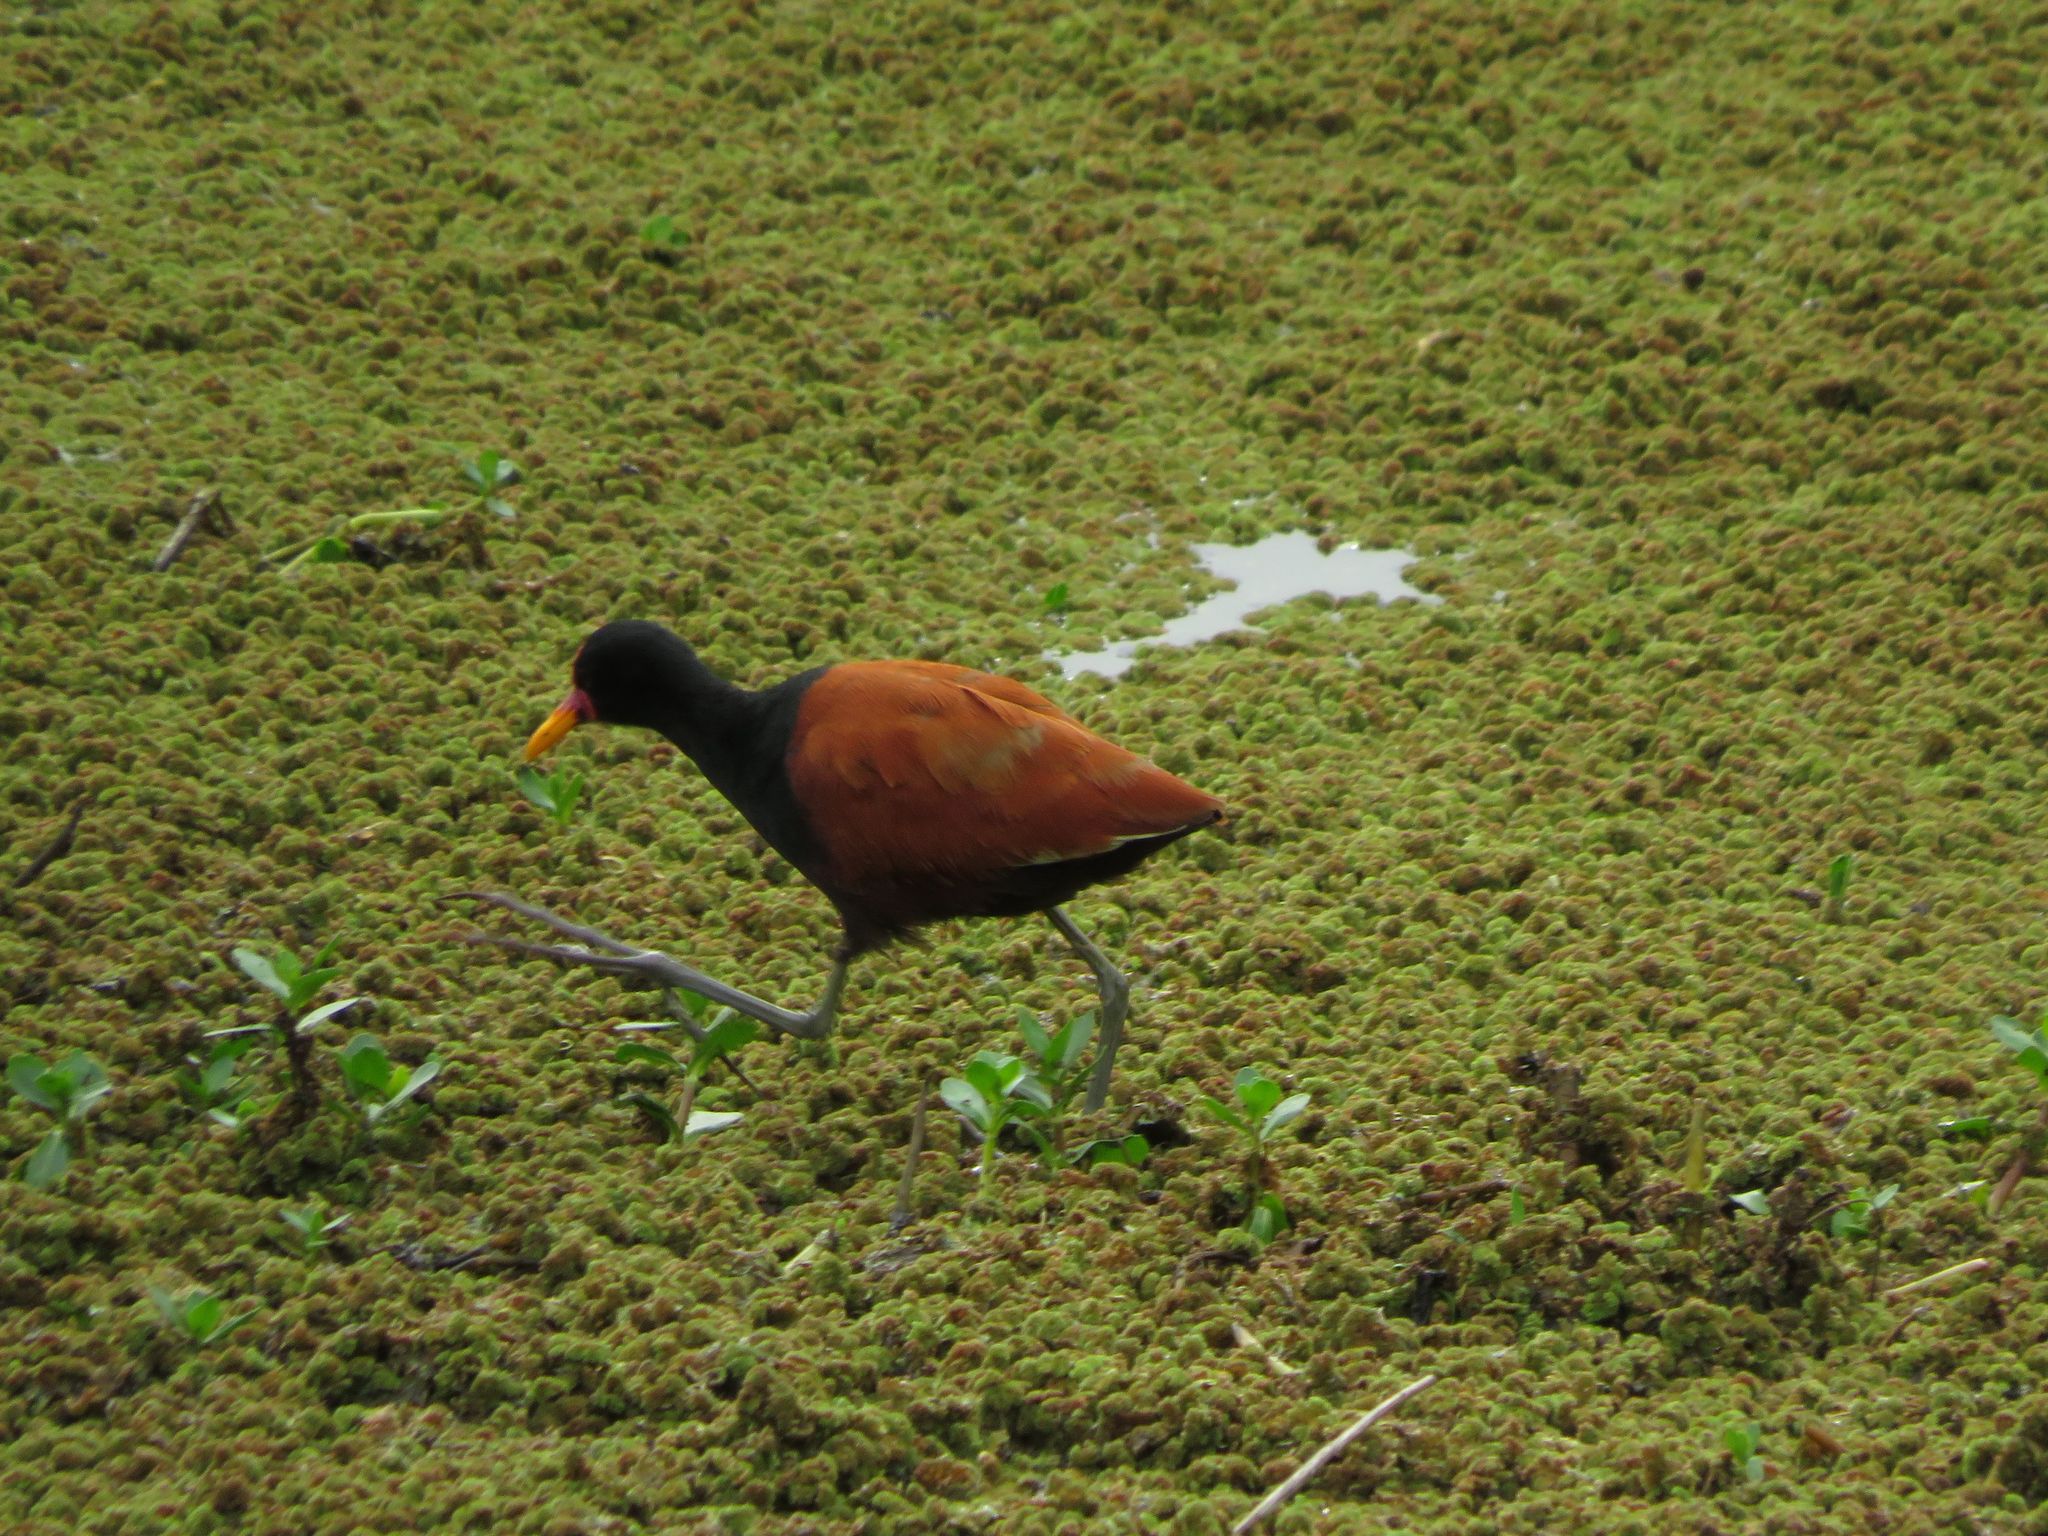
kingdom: Animalia
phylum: Chordata
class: Aves
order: Charadriiformes
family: Jacanidae
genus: Jacana
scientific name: Jacana jacana
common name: Wattled jacana
